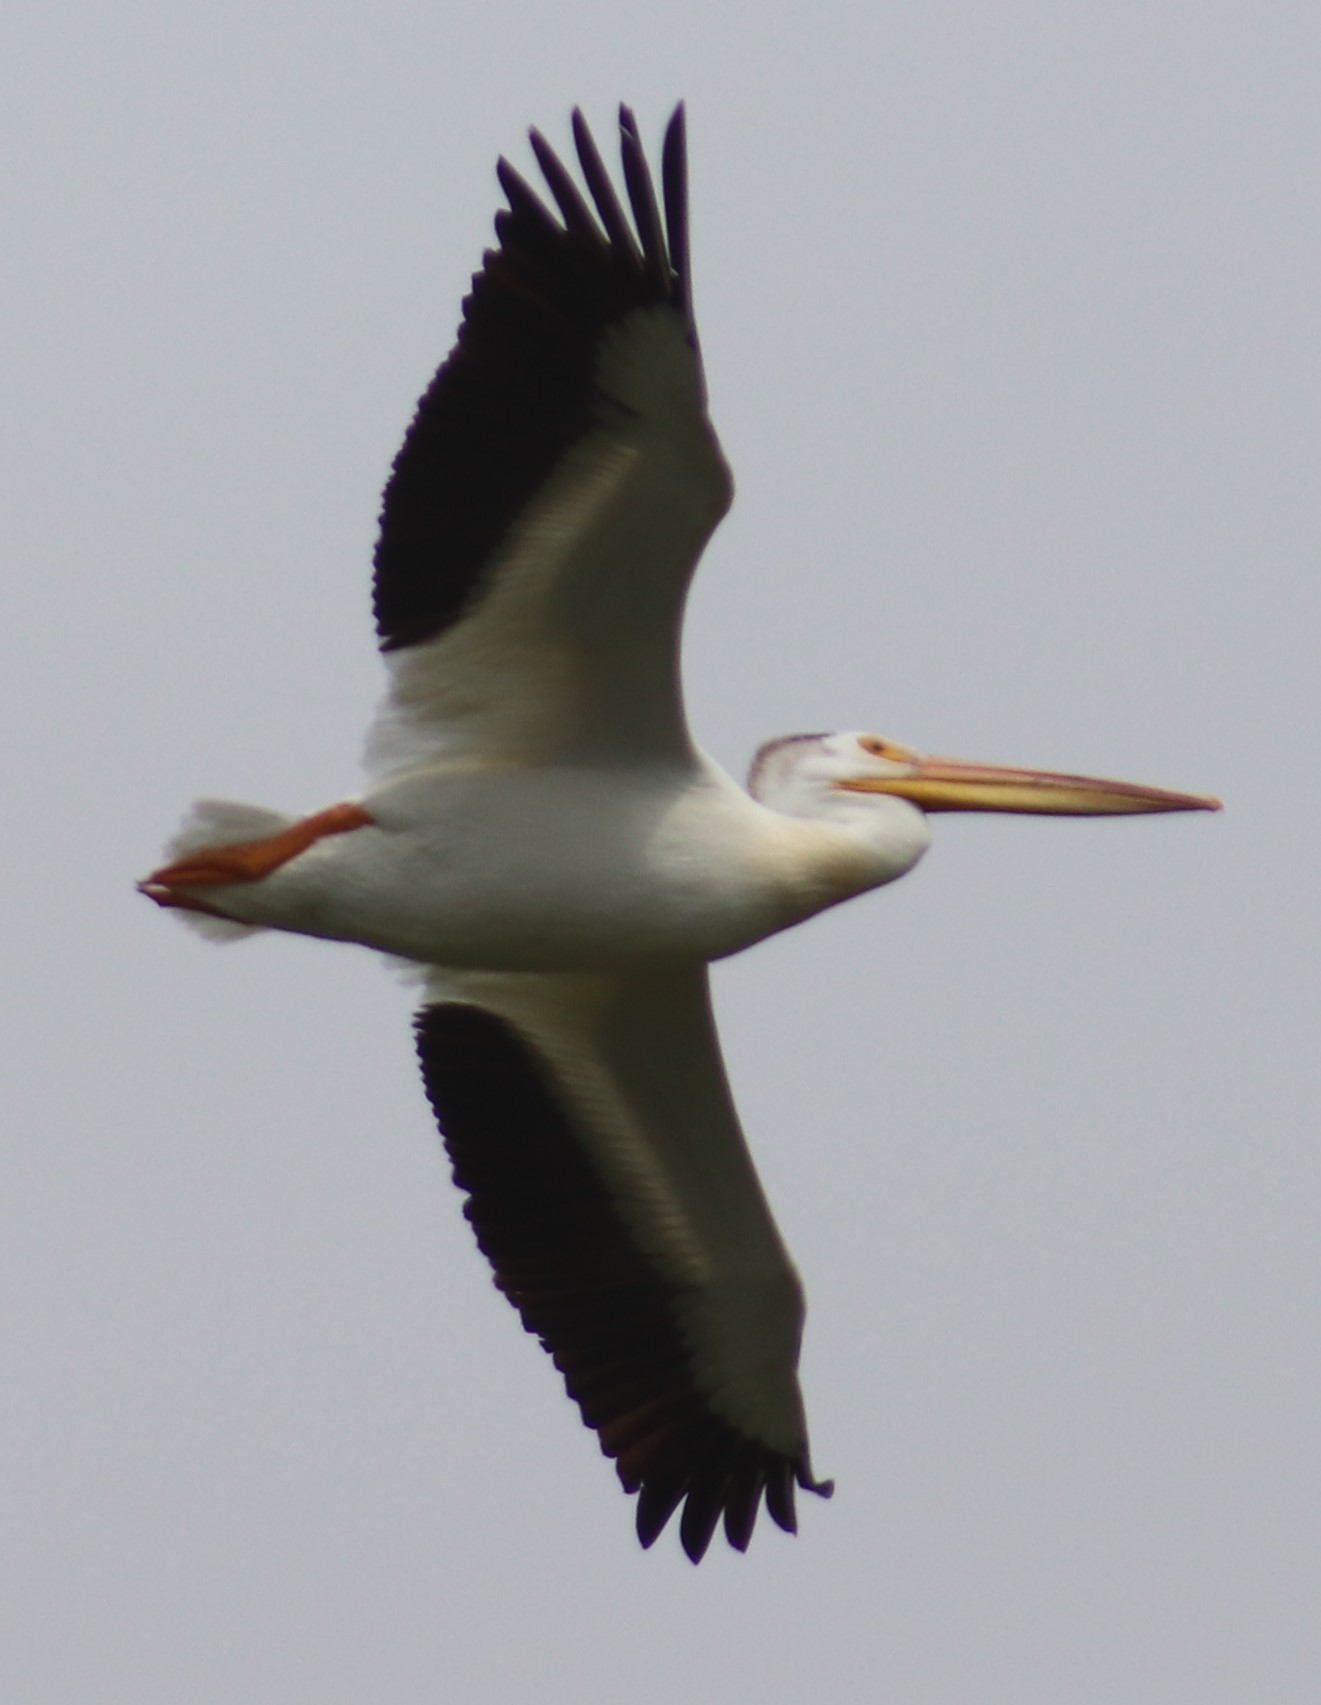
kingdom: Animalia
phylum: Chordata
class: Aves
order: Pelecaniformes
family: Pelecanidae
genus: Pelecanus
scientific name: Pelecanus erythrorhynchos
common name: American white pelican
